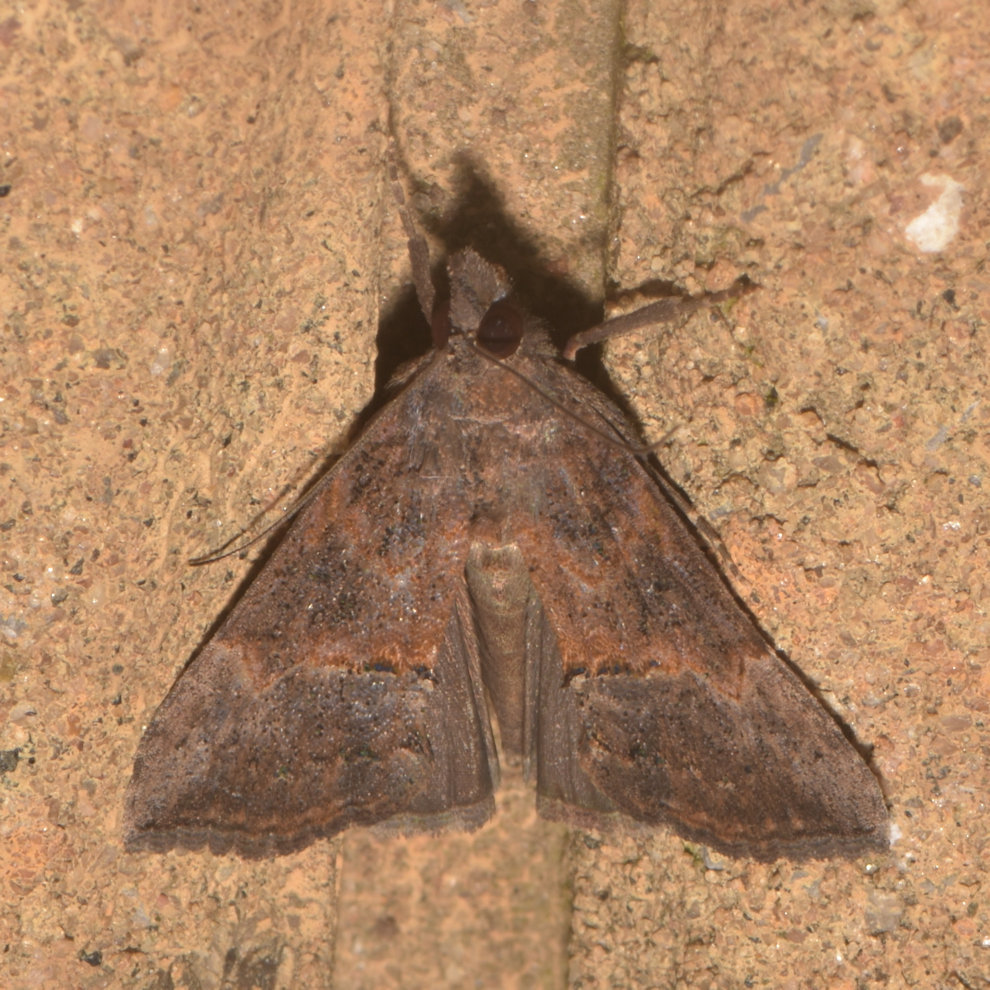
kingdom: Animalia
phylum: Arthropoda
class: Insecta
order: Lepidoptera
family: Erebidae
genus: Hypena
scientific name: Hypena scabra
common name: Green cloverworm
